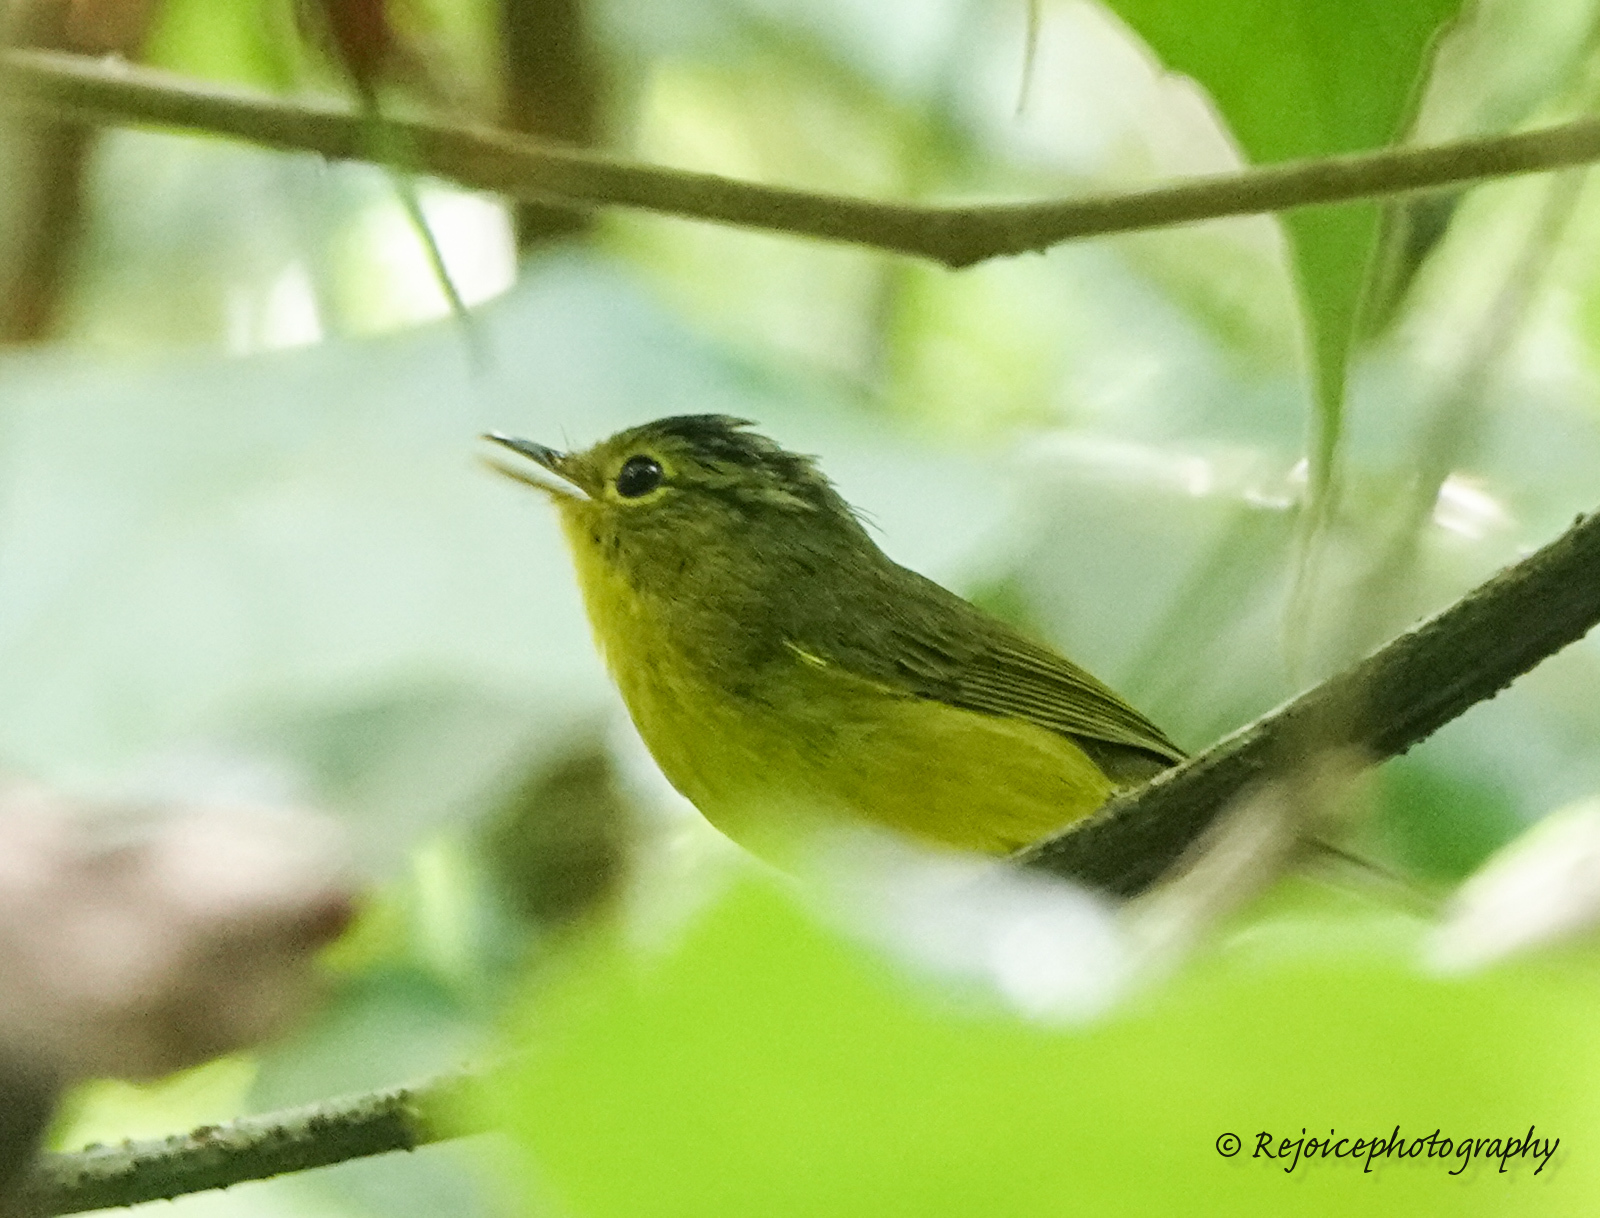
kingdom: Animalia
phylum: Chordata
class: Aves
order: Passeriformes
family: Phylloscopidae
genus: Seicercus
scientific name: Seicercus burkii
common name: Green-crowned warbler
